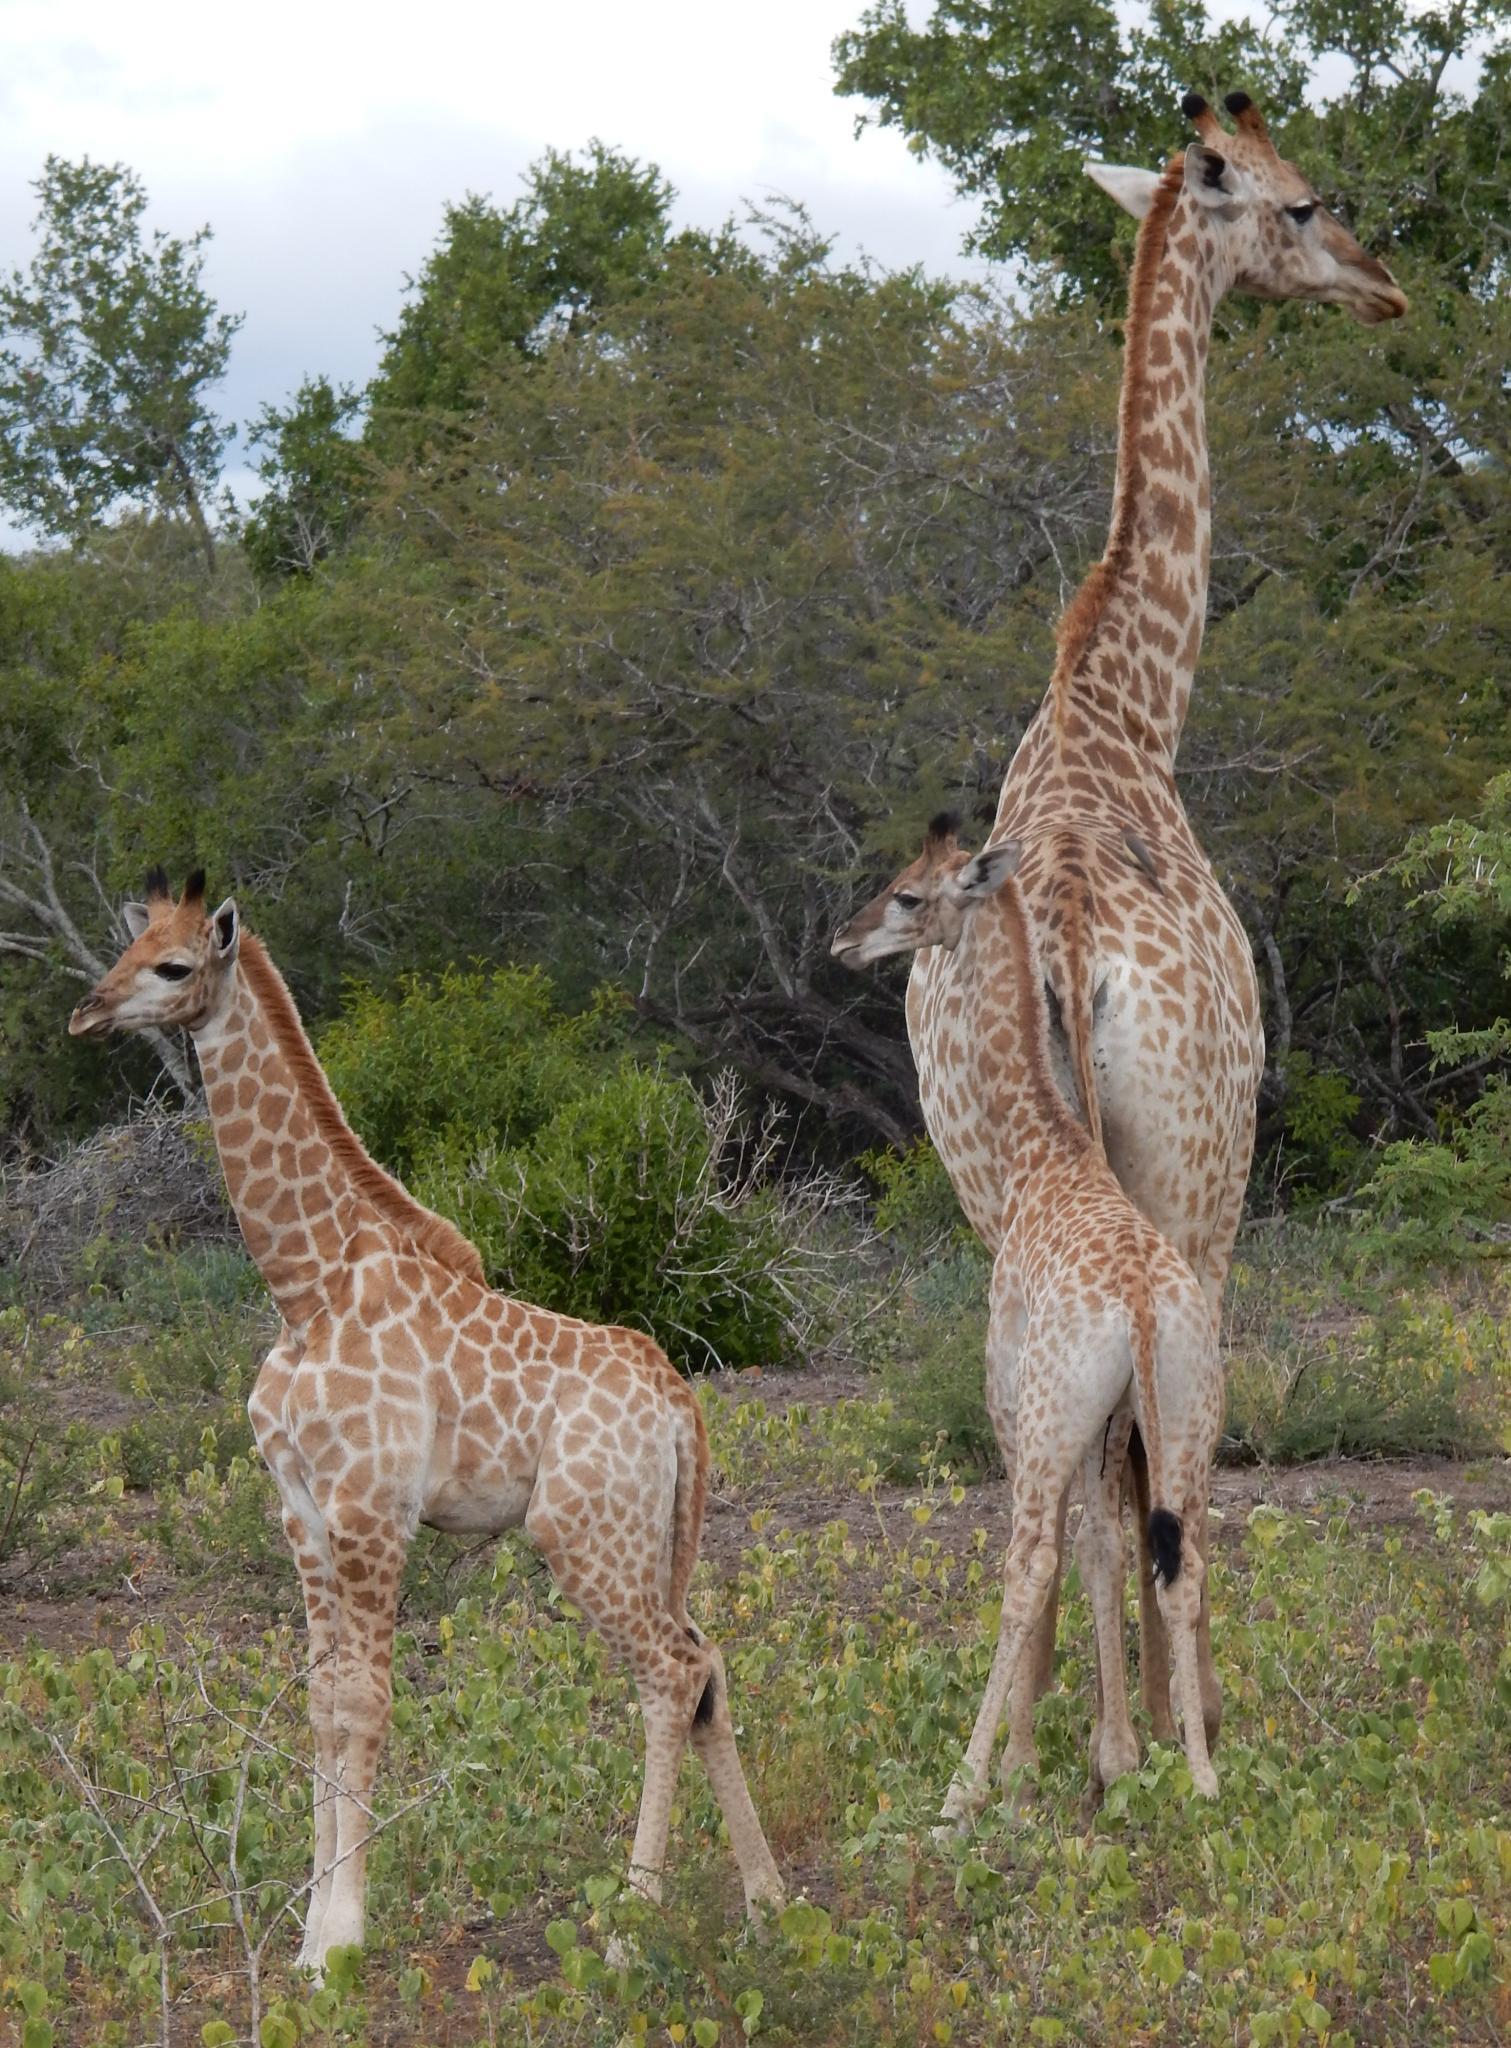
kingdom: Animalia
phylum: Chordata
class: Mammalia
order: Artiodactyla
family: Giraffidae
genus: Giraffa
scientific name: Giraffa giraffa
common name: Southern giraffe
